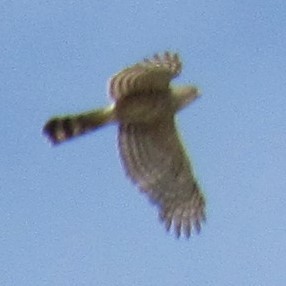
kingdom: Animalia
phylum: Chordata
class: Aves
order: Accipitriformes
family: Accipitridae
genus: Accipiter
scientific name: Accipiter cooperii
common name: Cooper's hawk
